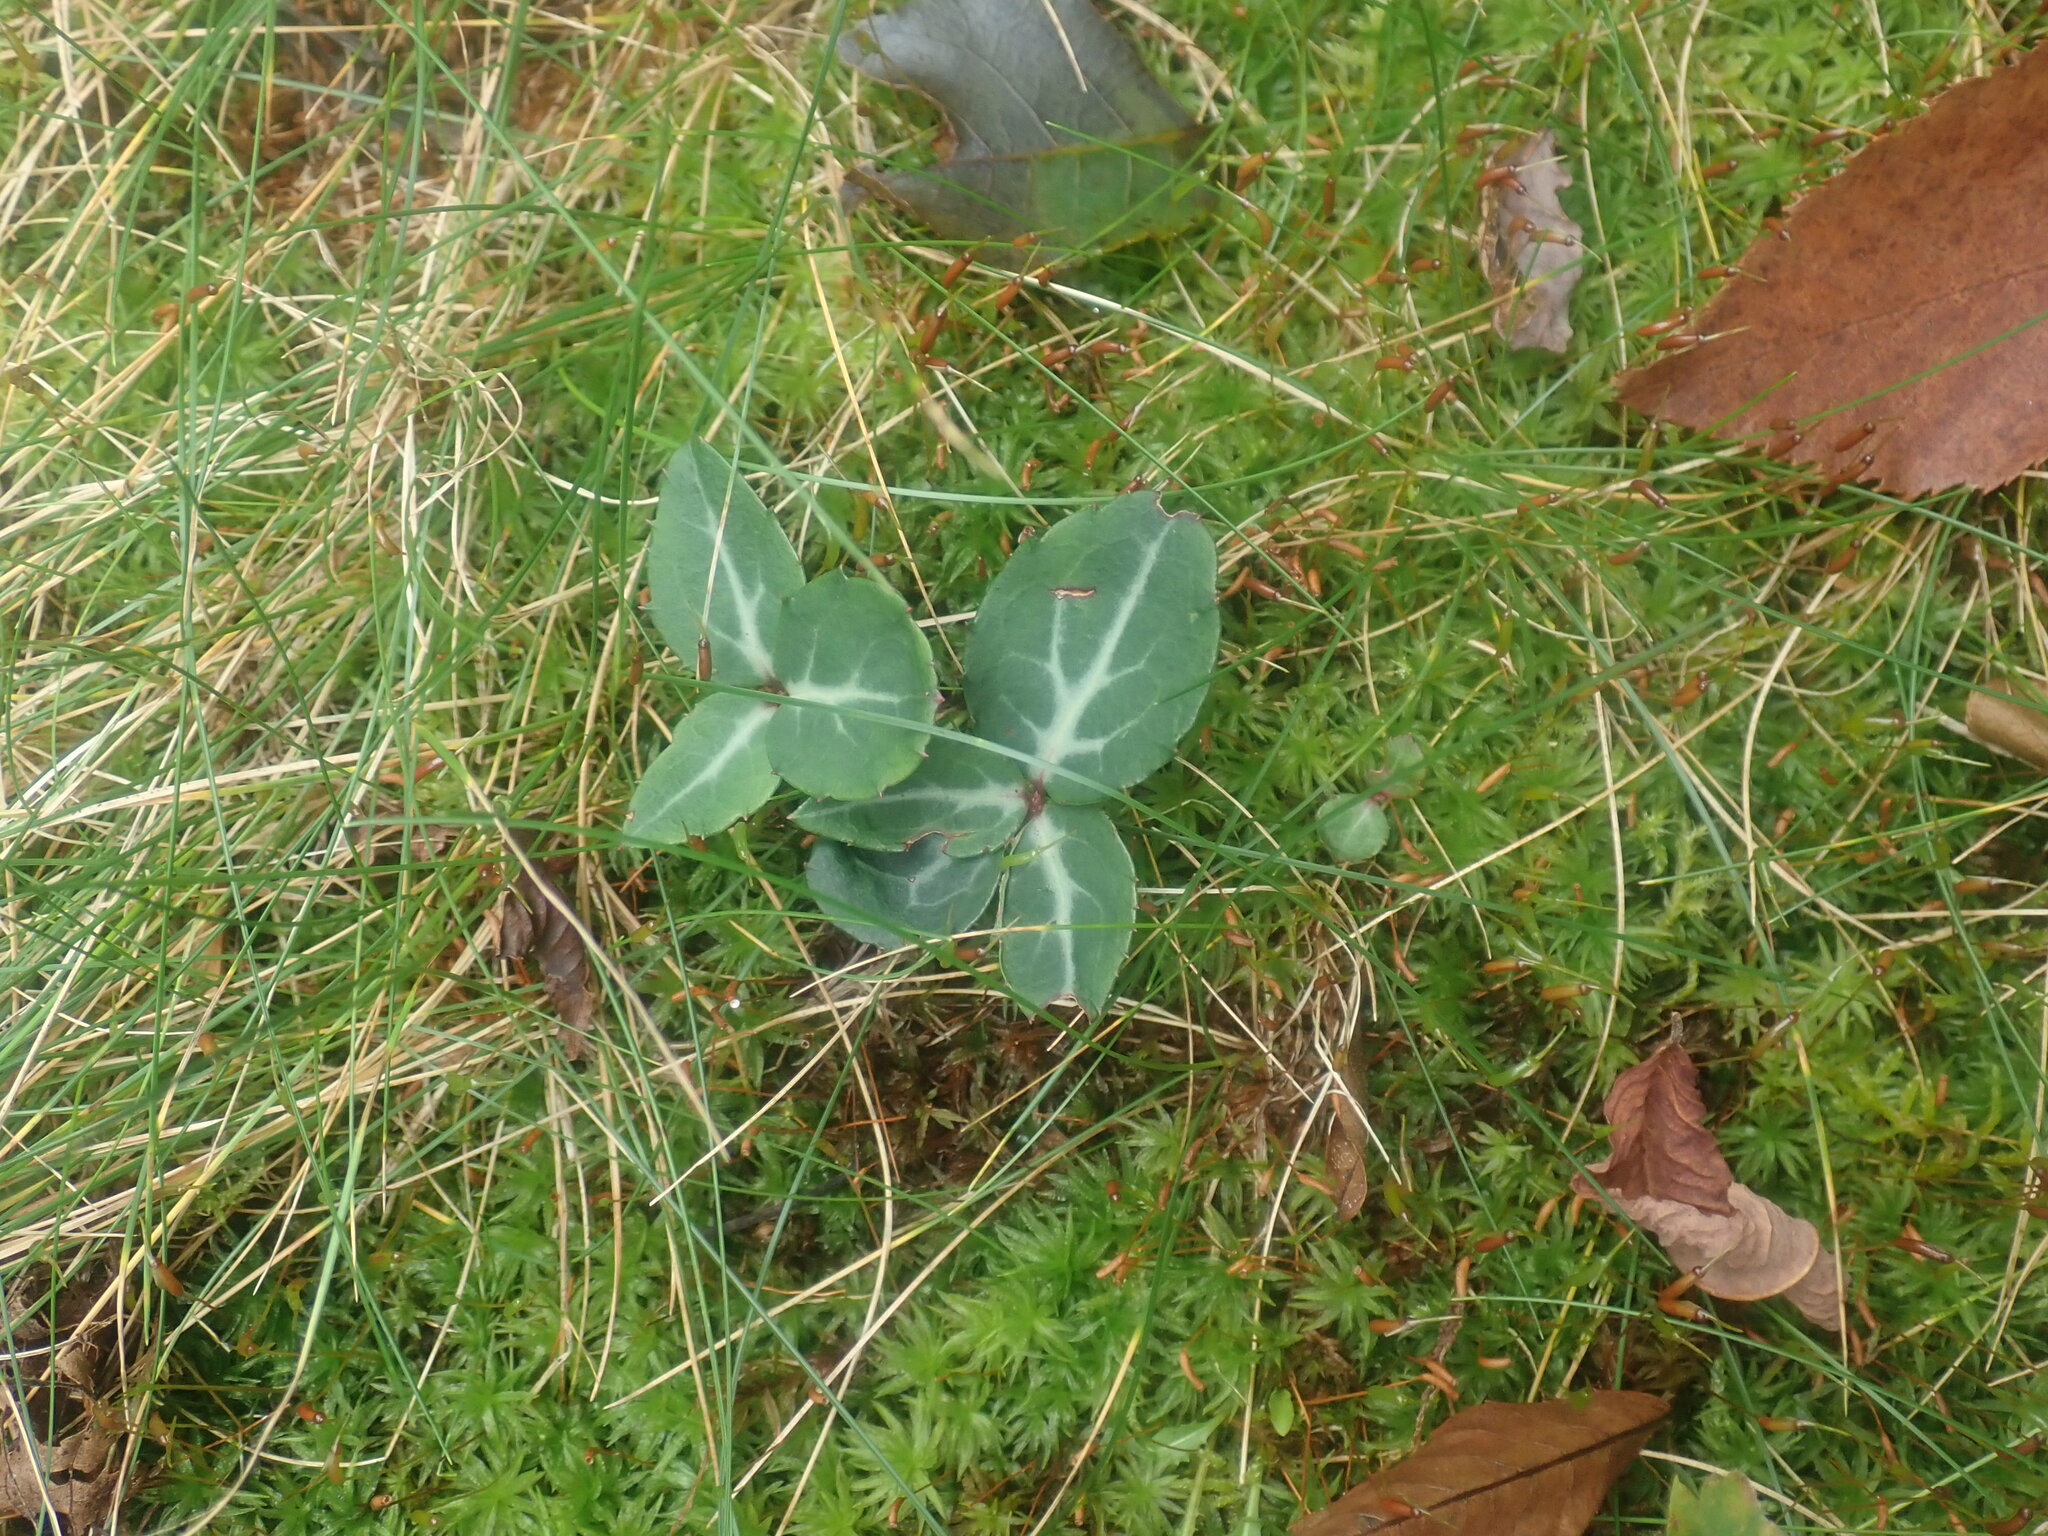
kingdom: Plantae
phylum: Tracheophyta
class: Magnoliopsida
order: Ericales
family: Ericaceae
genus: Chimaphila
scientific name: Chimaphila maculata
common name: Spotted pipsissewa
